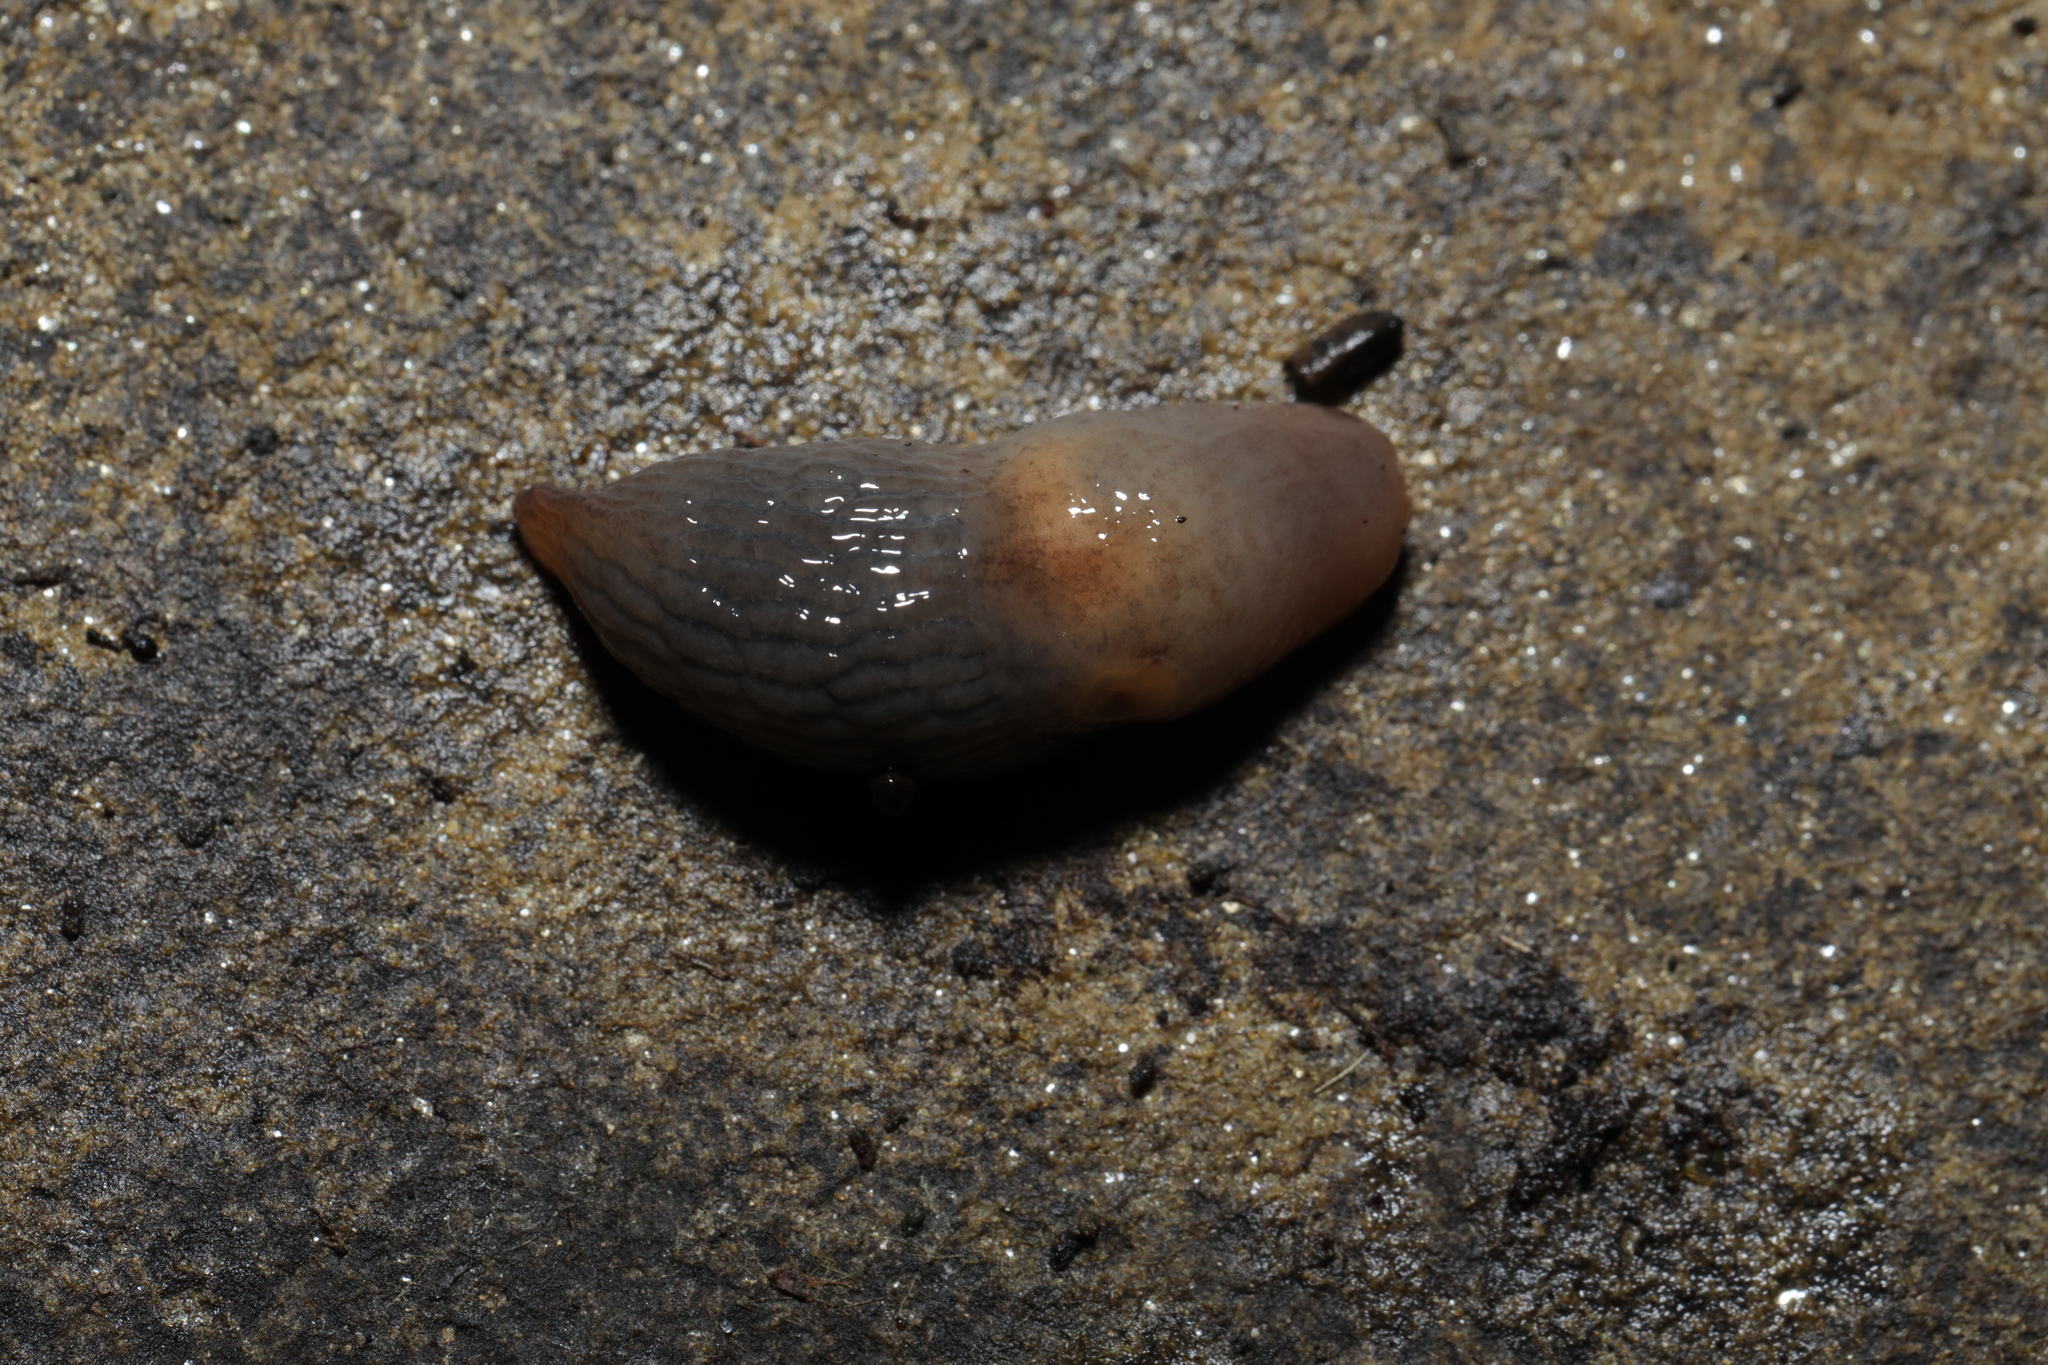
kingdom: Animalia
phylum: Mollusca
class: Gastropoda
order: Stylommatophora
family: Agriolimacidae
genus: Deroceras
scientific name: Deroceras invadens
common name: Caruana's slug
